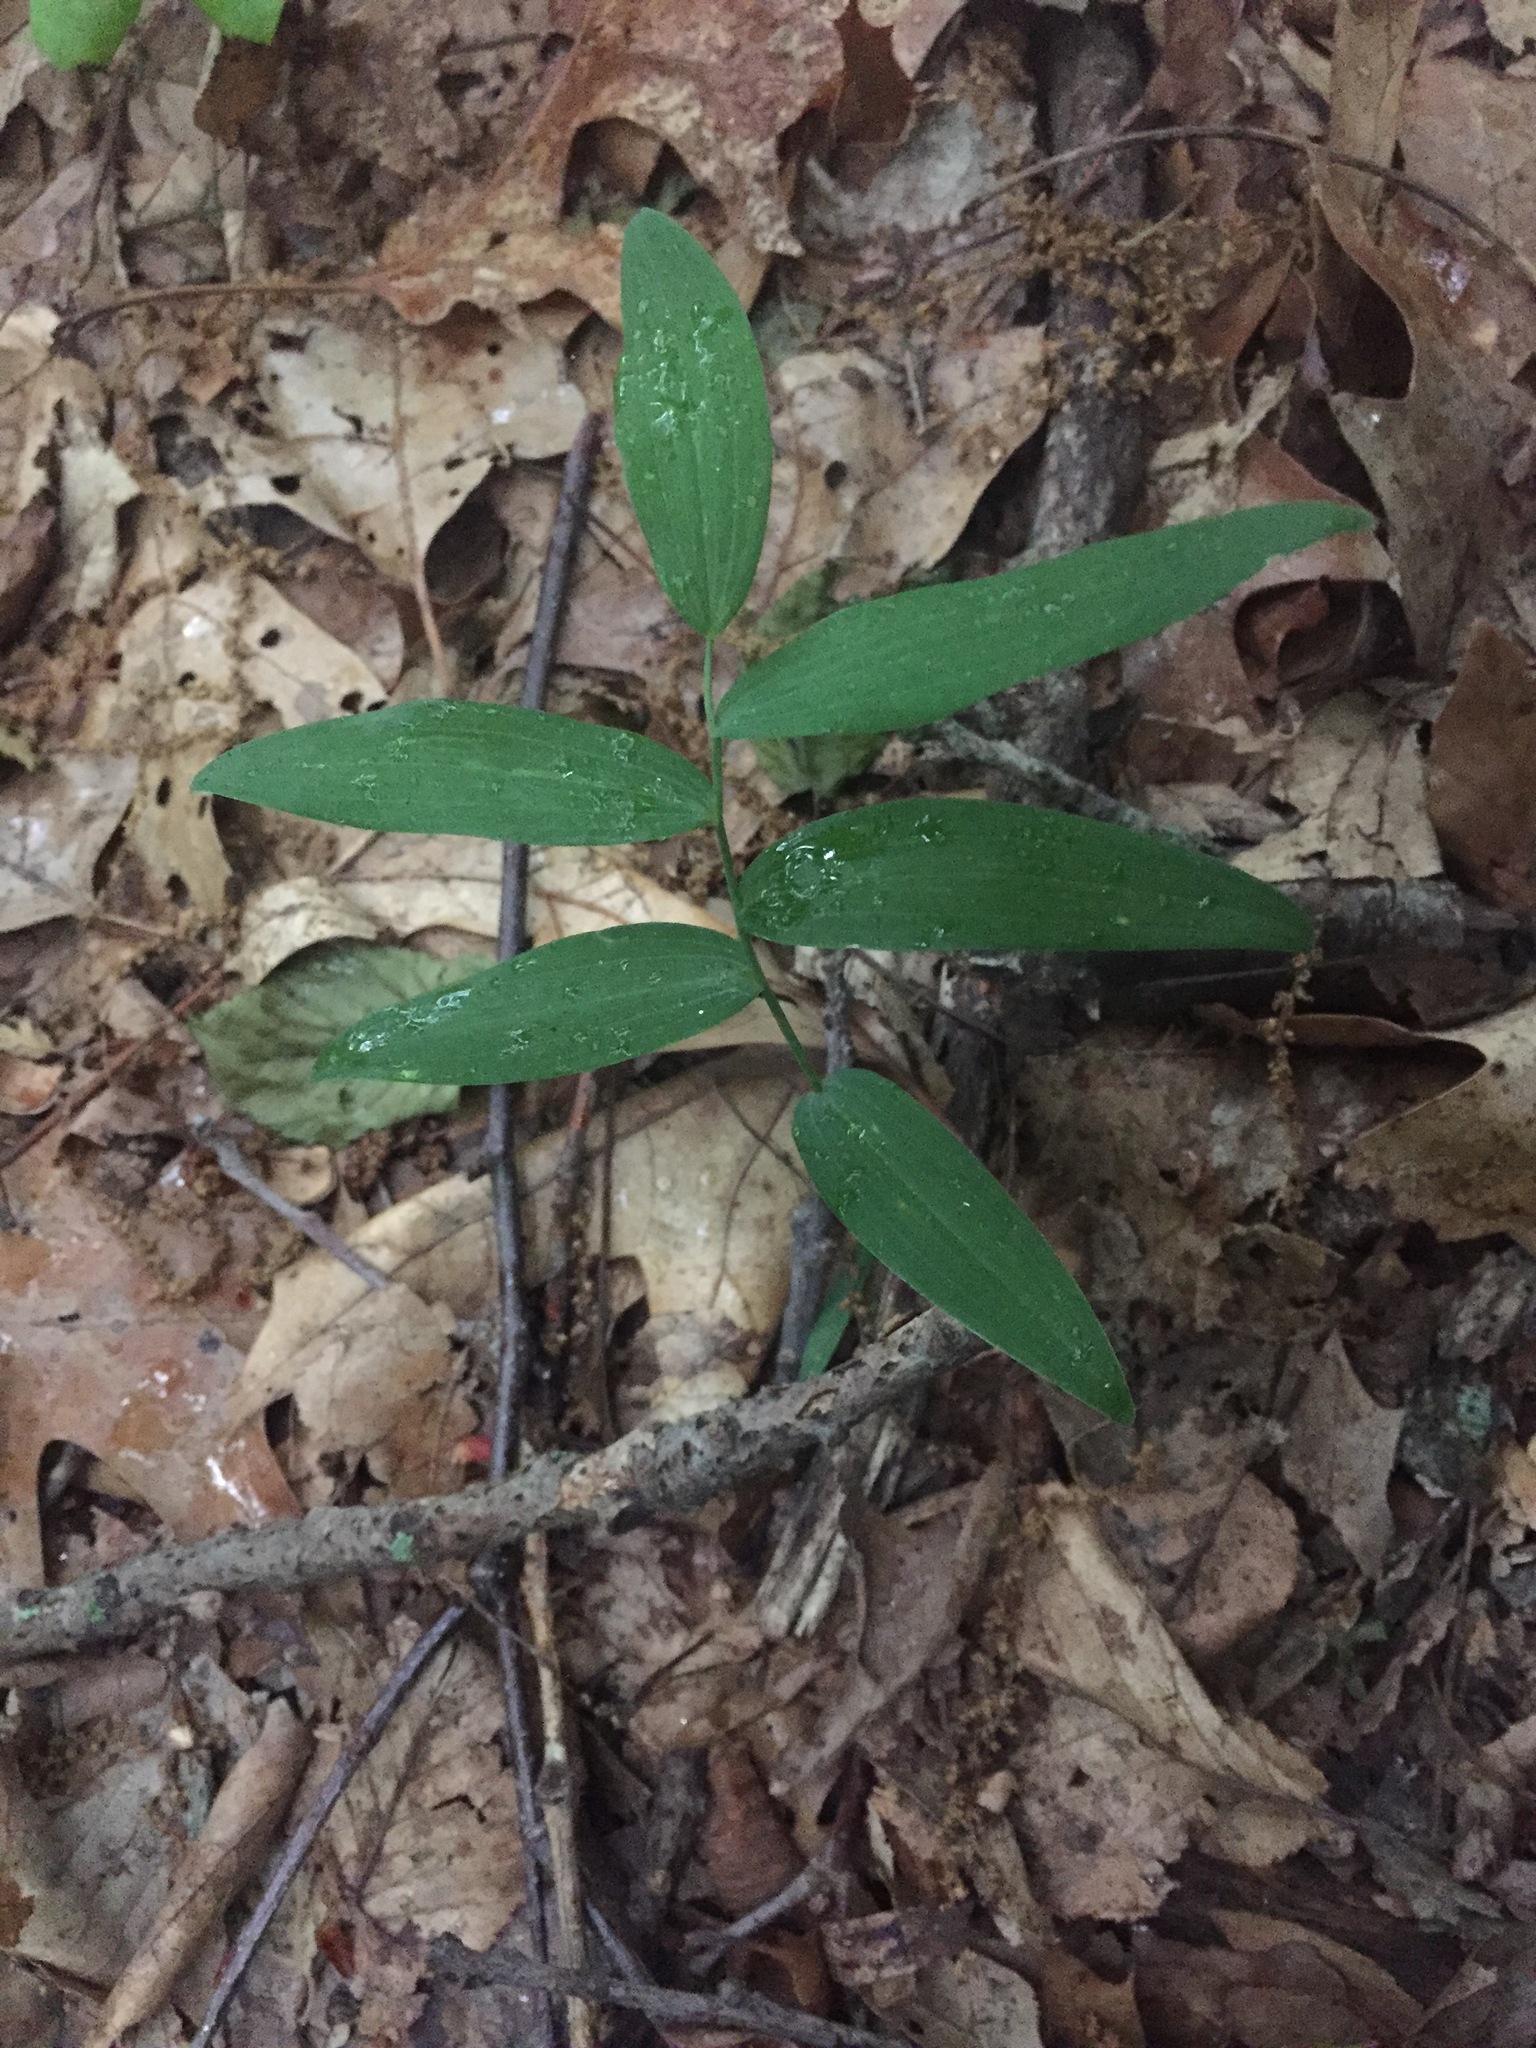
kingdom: Plantae
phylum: Tracheophyta
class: Liliopsida
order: Asparagales
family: Asparagaceae
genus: Polygonatum
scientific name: Polygonatum biflorum
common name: American solomon's-seal
